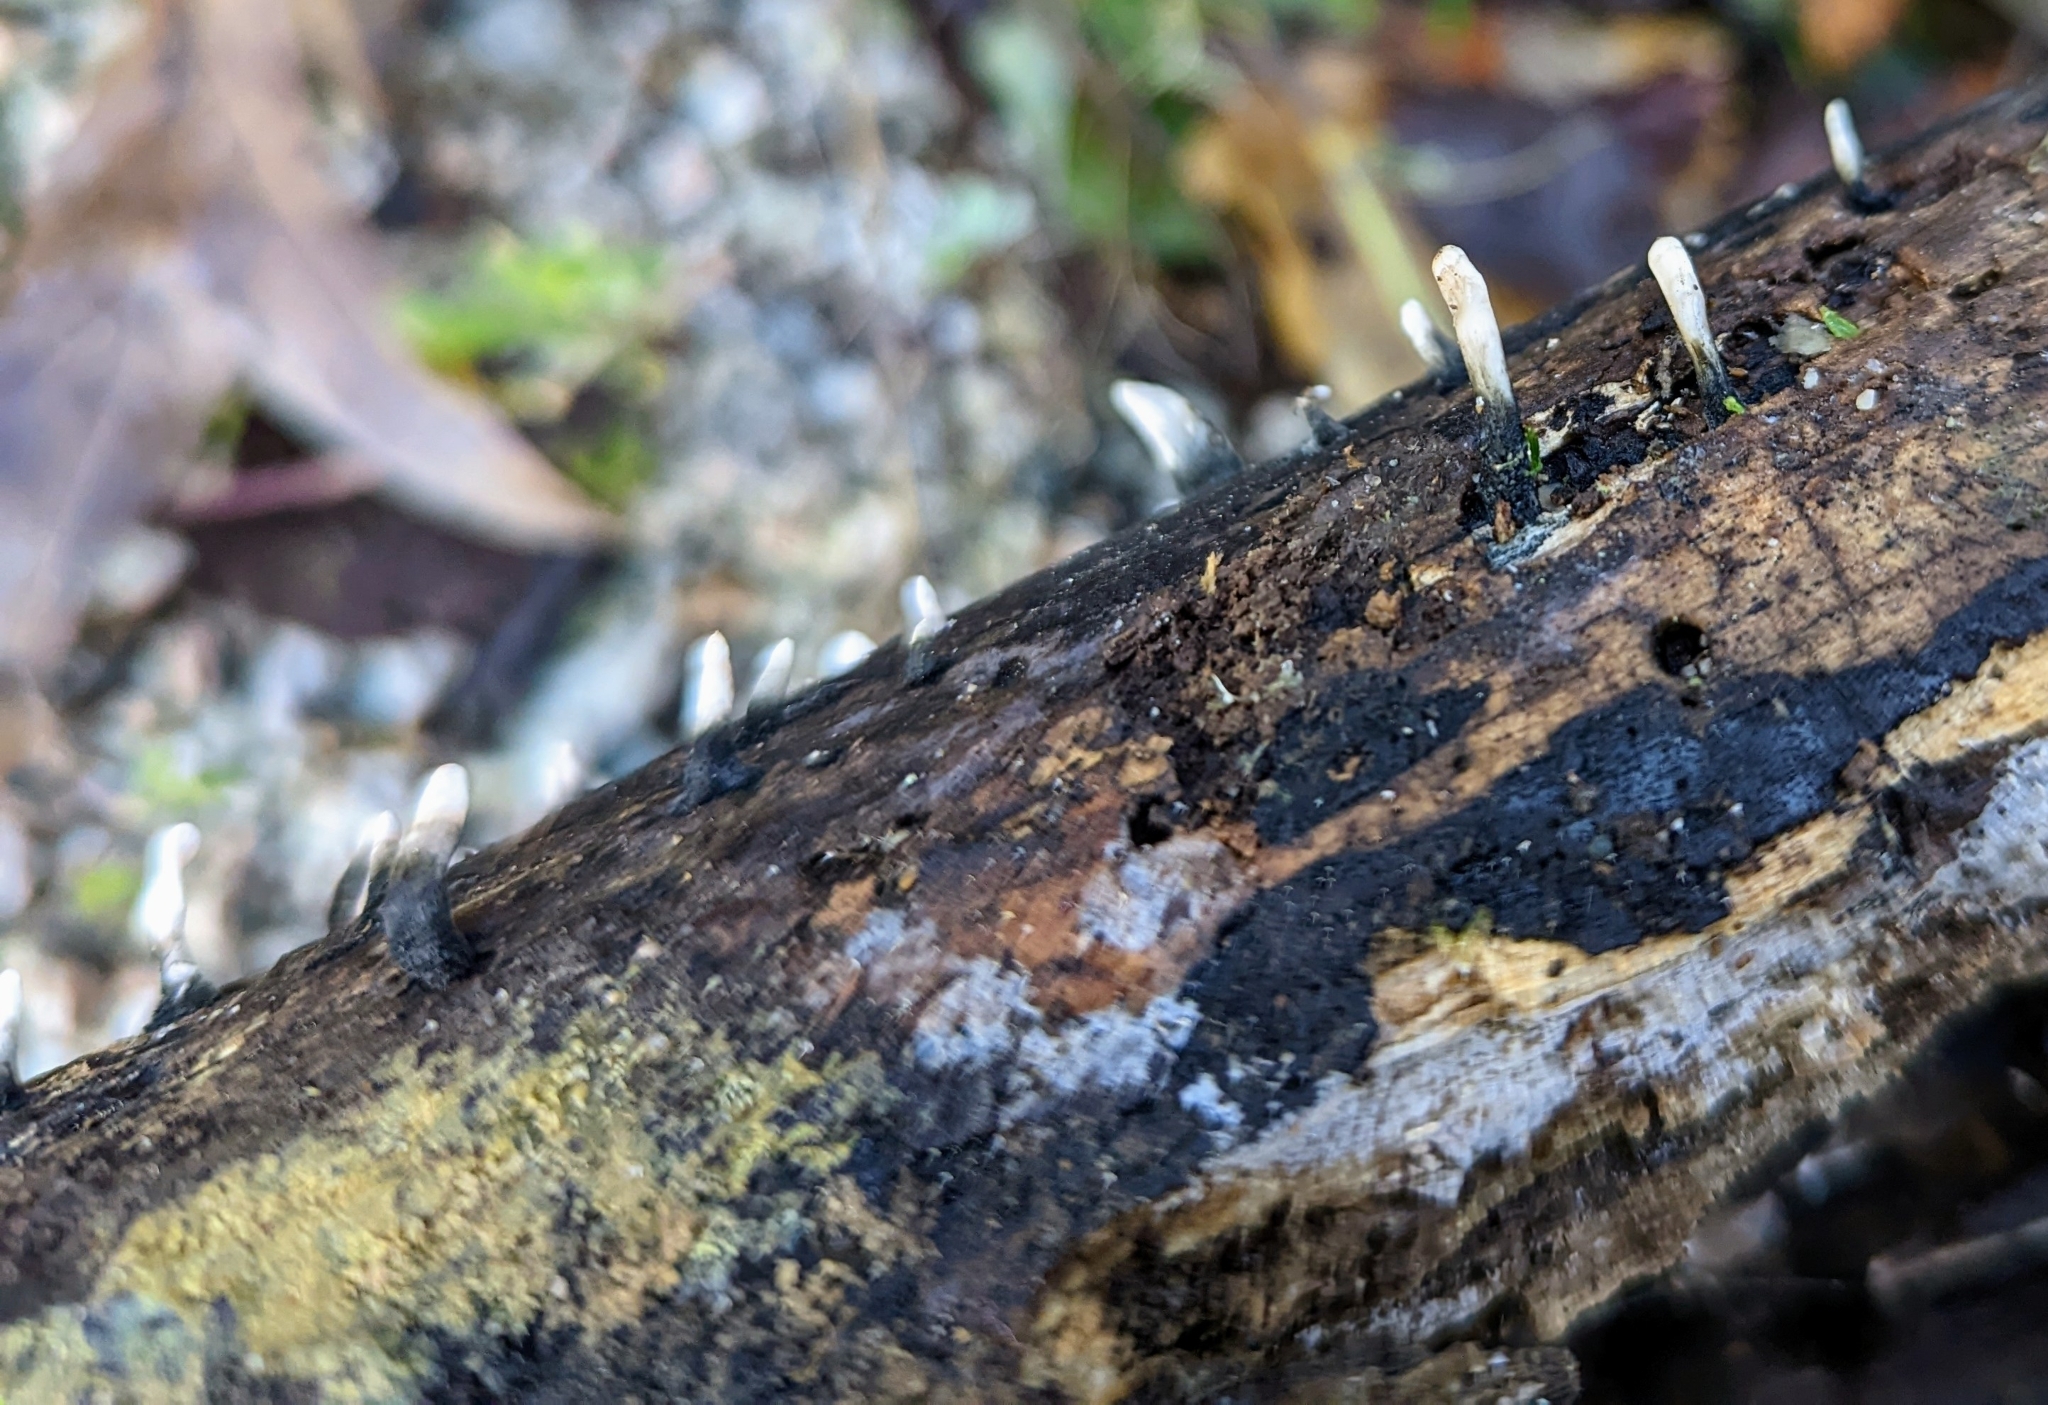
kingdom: Fungi
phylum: Ascomycota
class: Sordariomycetes
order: Xylariales
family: Xylariaceae
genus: Xylaria
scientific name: Xylaria hypoxylon
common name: Candle-snuff fungus
